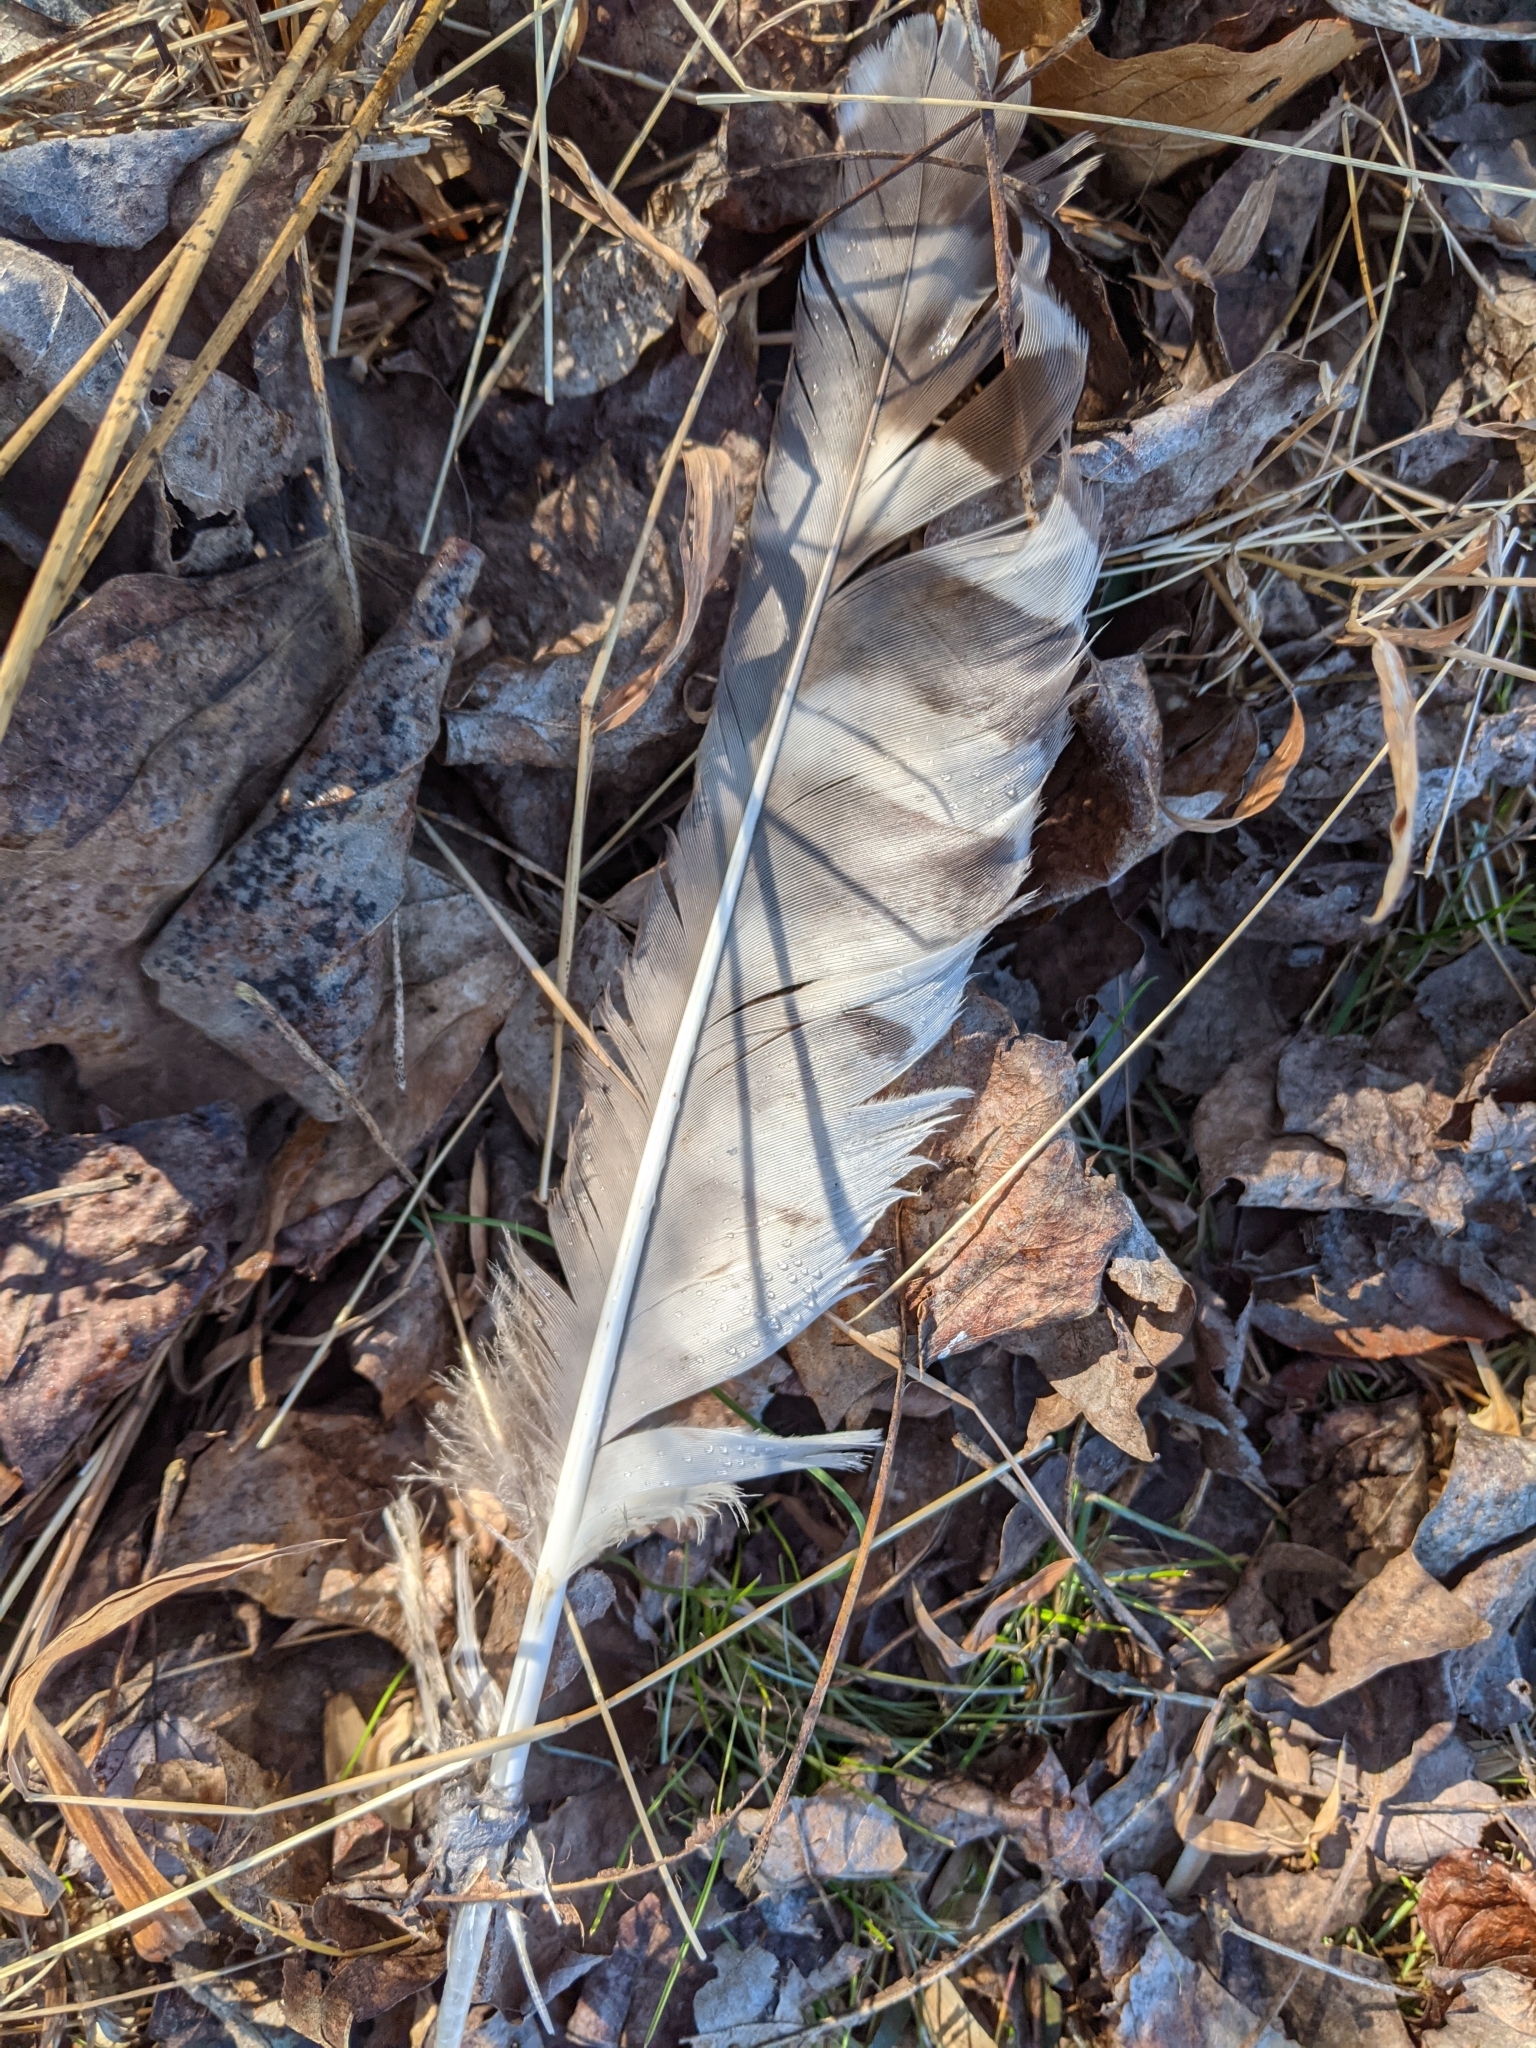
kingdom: Animalia
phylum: Chordata
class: Aves
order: Strigiformes
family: Strigidae
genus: Strix
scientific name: Strix varia
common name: Barred owl
